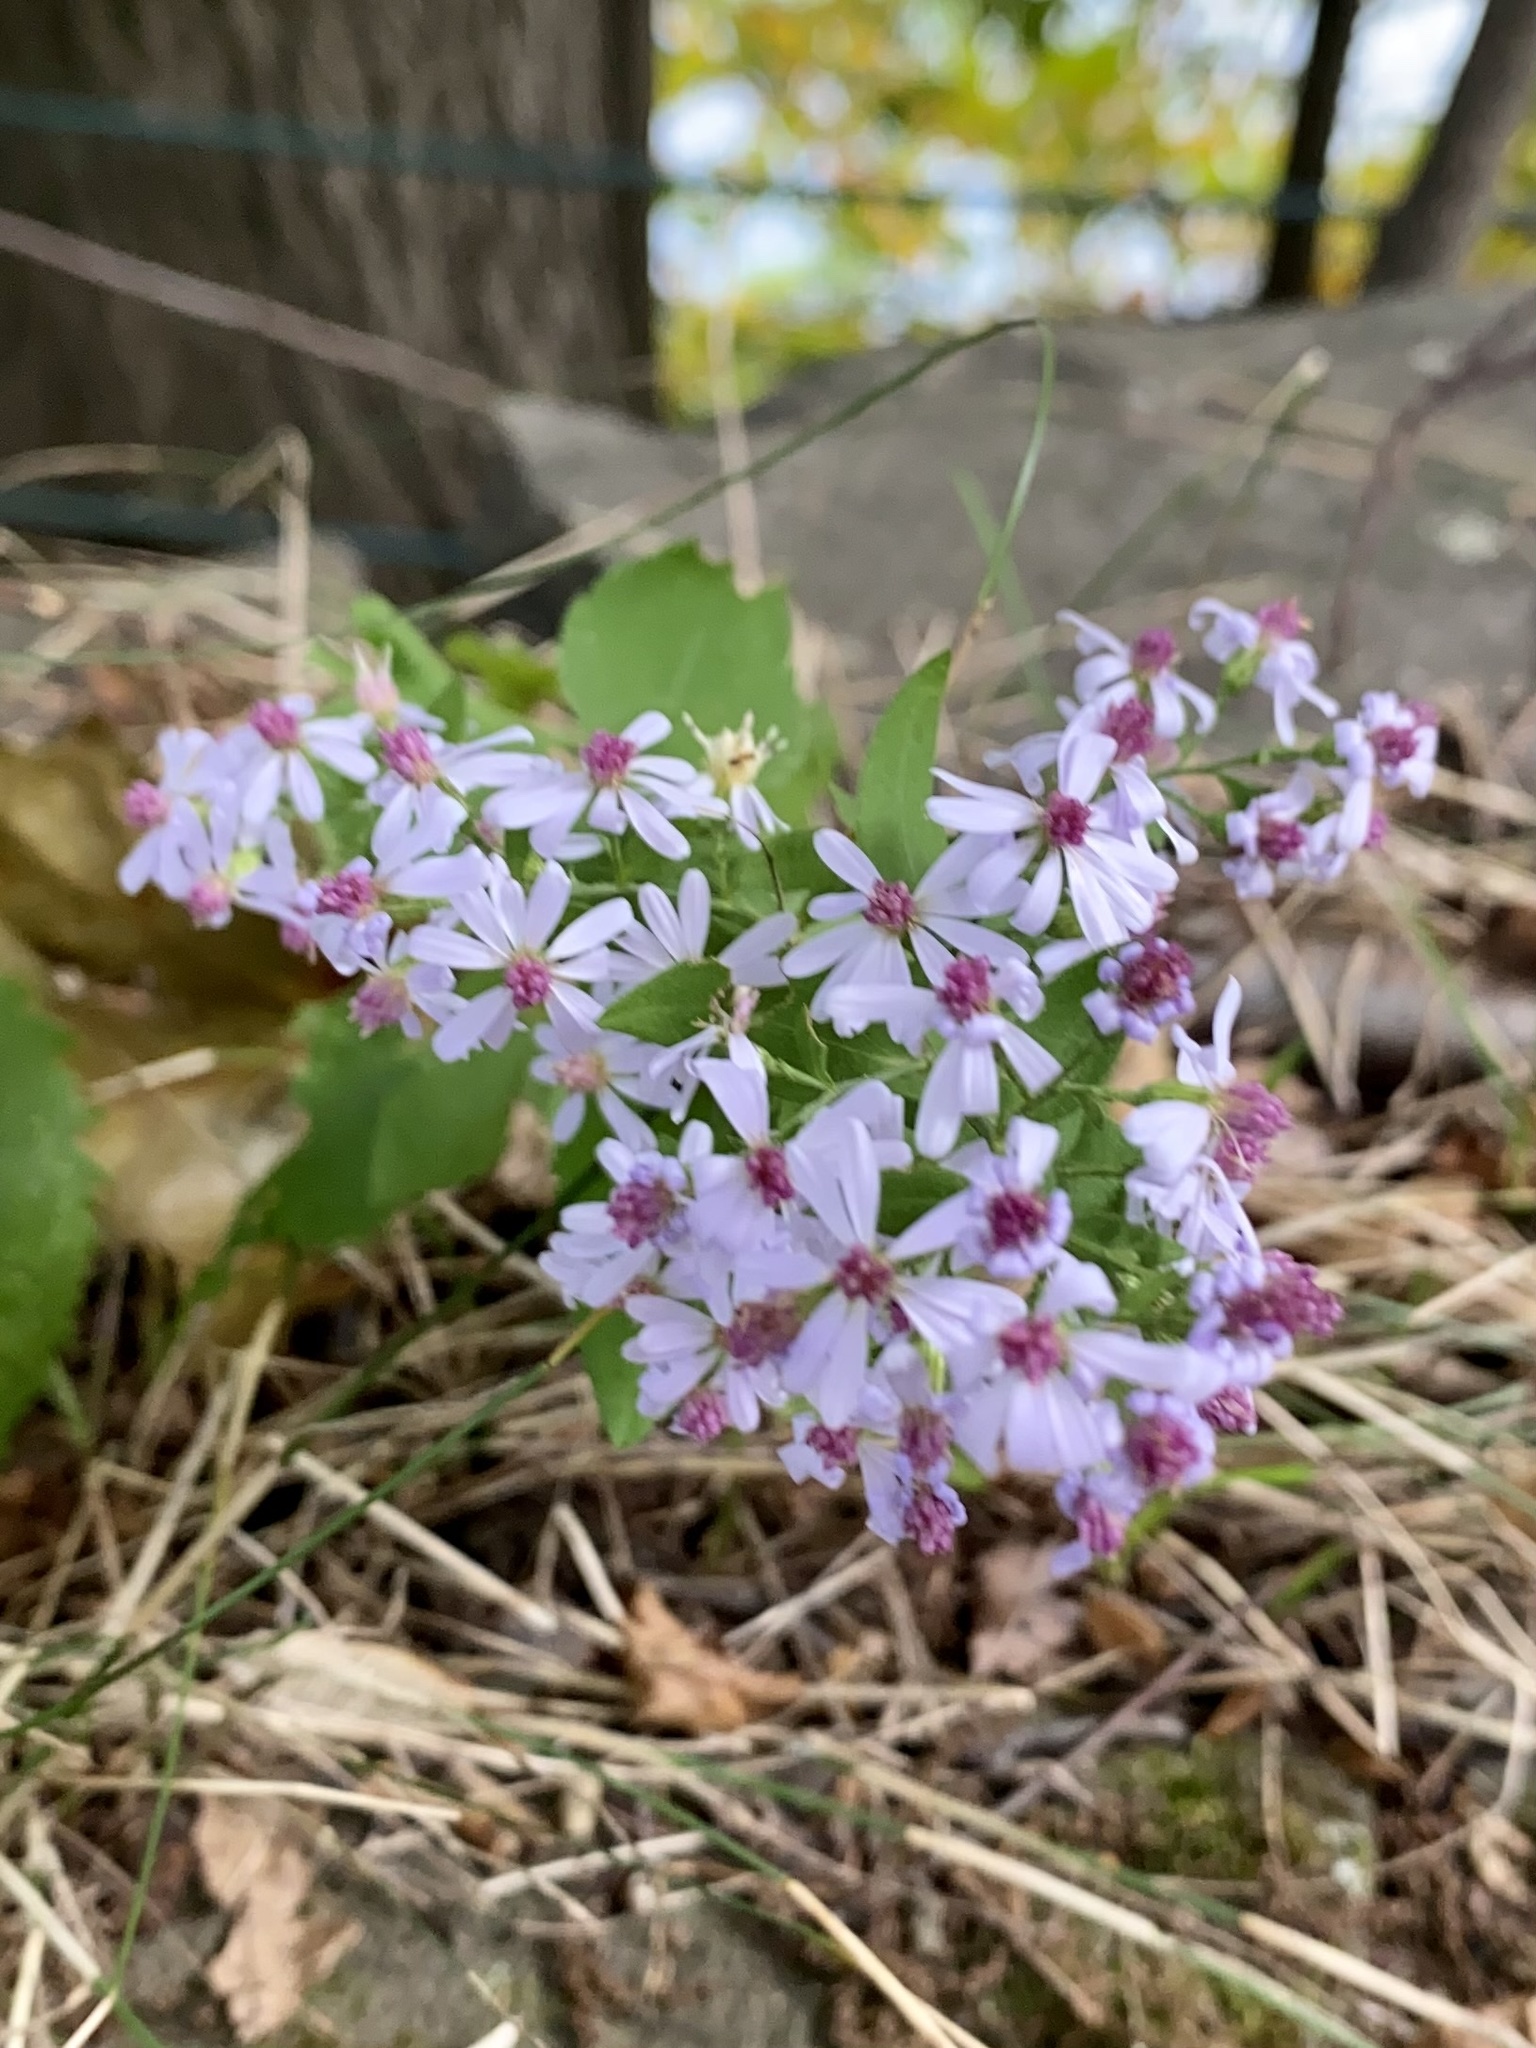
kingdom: Plantae
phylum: Tracheophyta
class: Magnoliopsida
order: Asterales
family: Asteraceae
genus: Symphyotrichum
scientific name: Symphyotrichum cordifolium
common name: Beeweed
